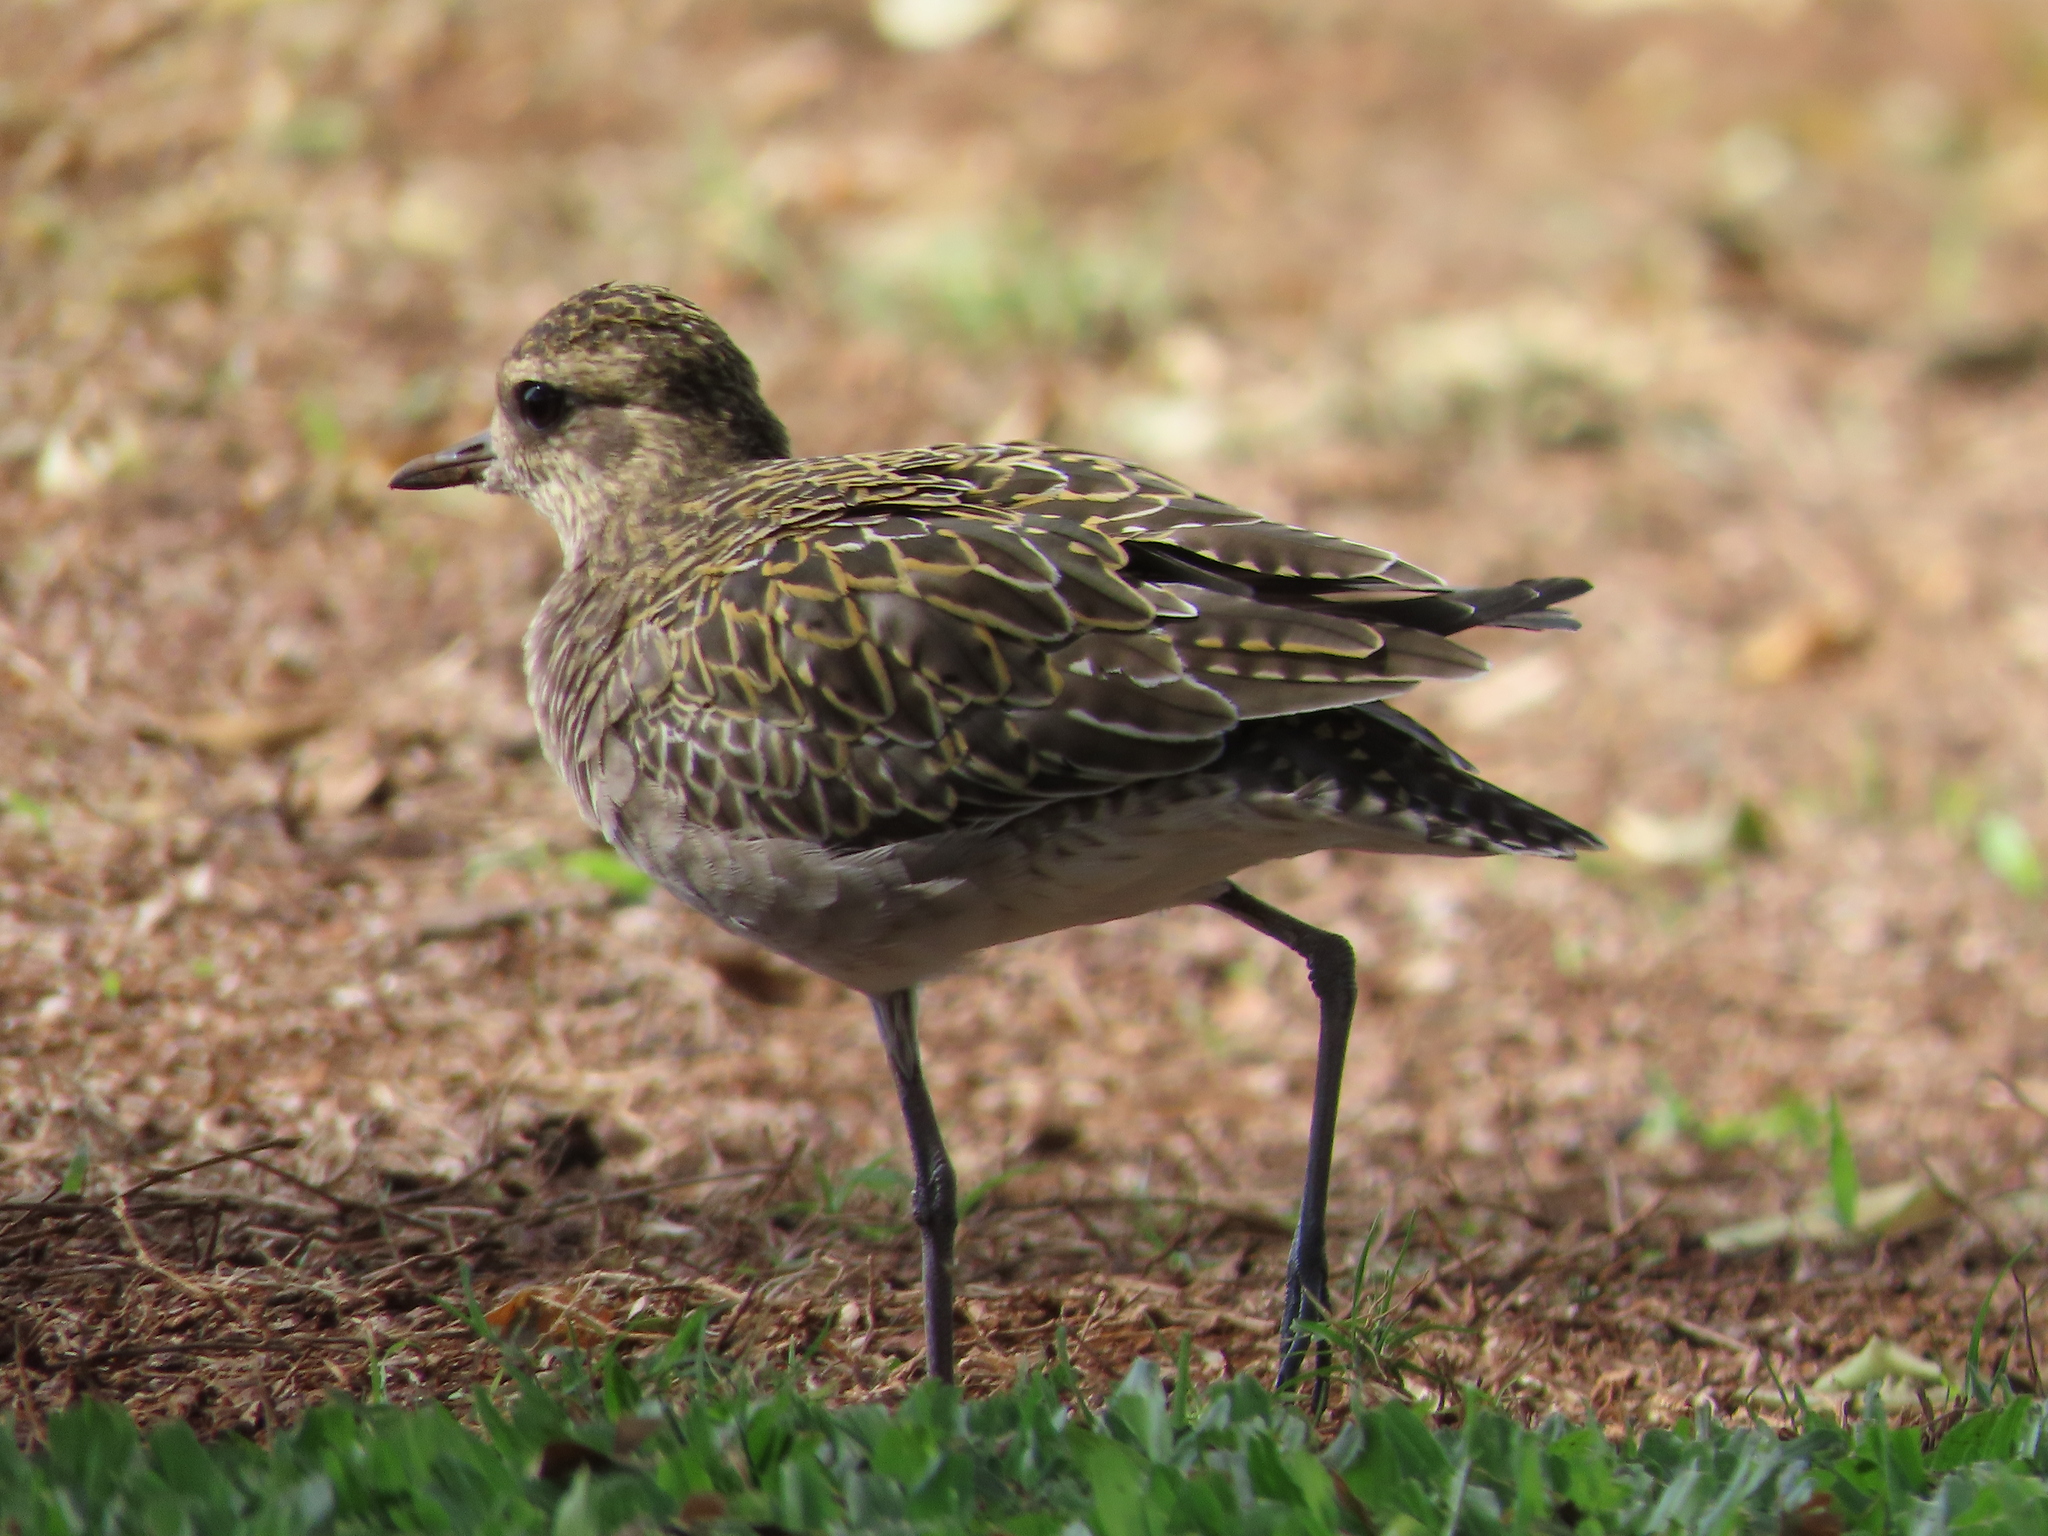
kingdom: Animalia
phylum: Chordata
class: Aves
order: Charadriiformes
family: Charadriidae
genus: Pluvialis
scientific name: Pluvialis fulva
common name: Pacific golden plover
